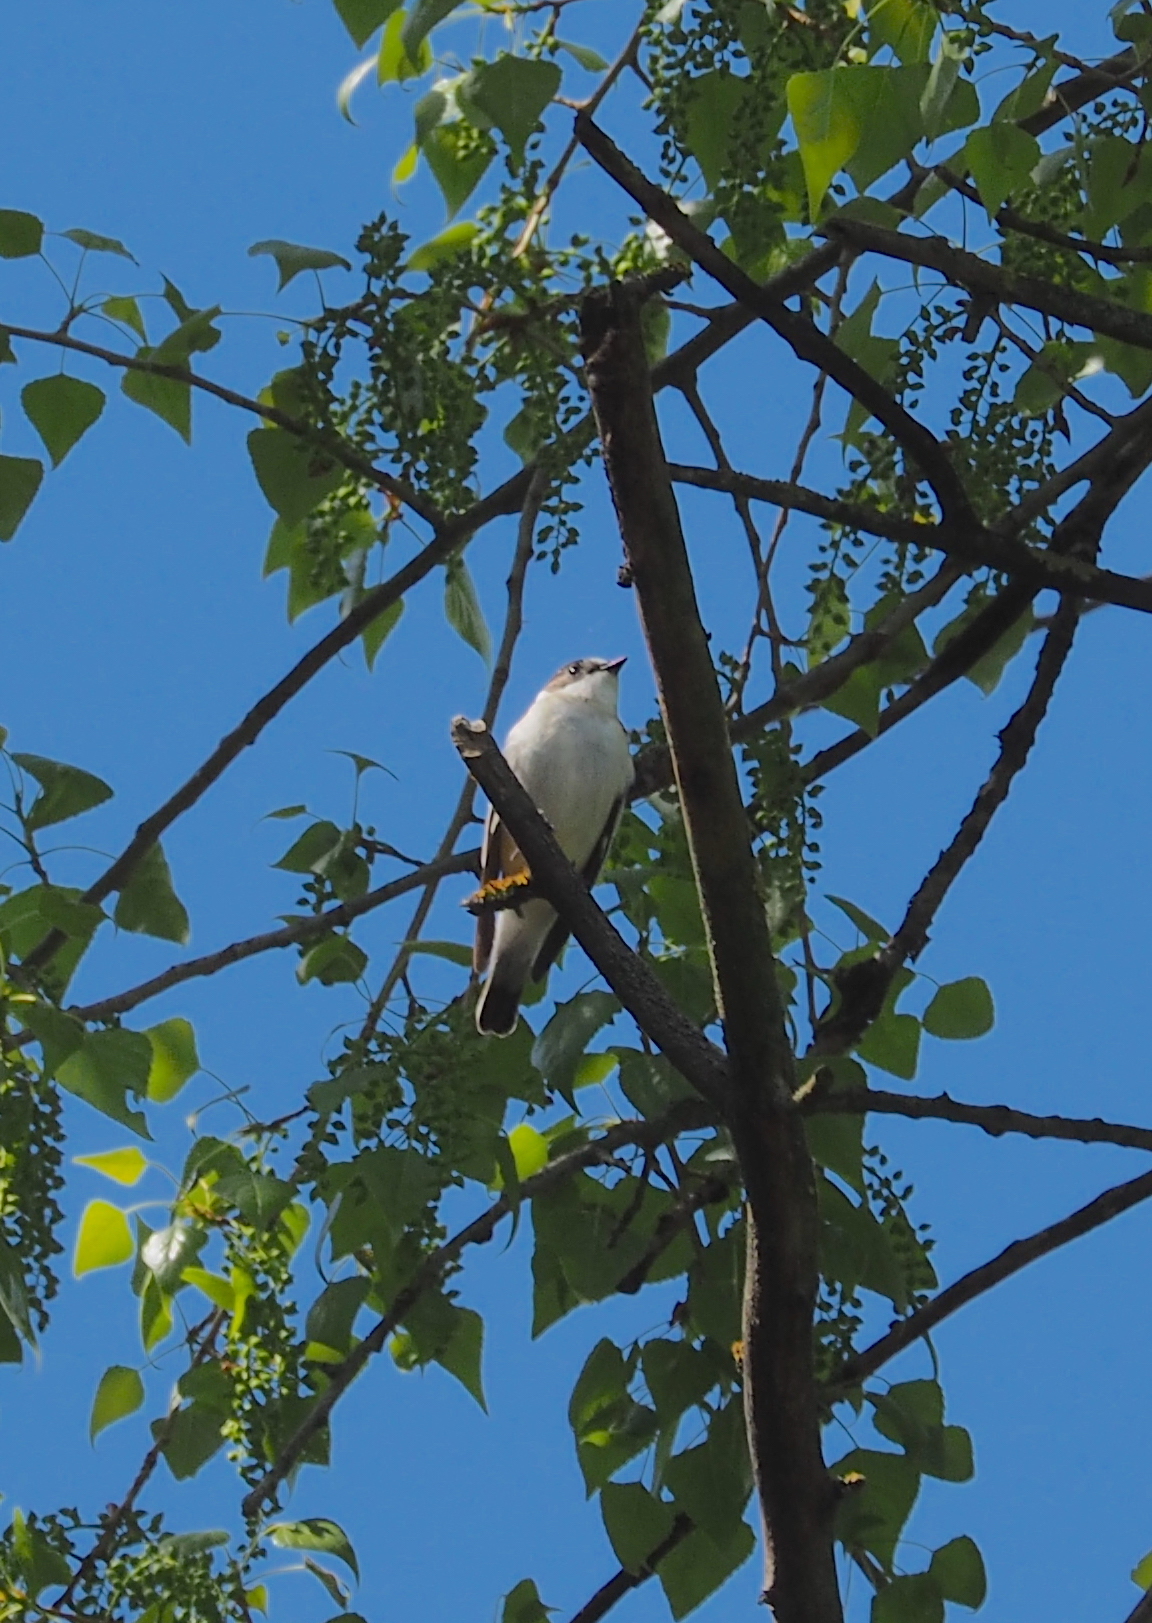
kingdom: Animalia
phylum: Chordata
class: Aves
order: Passeriformes
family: Muscicapidae
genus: Ficedula
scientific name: Ficedula albicollis
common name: Collared flycatcher
